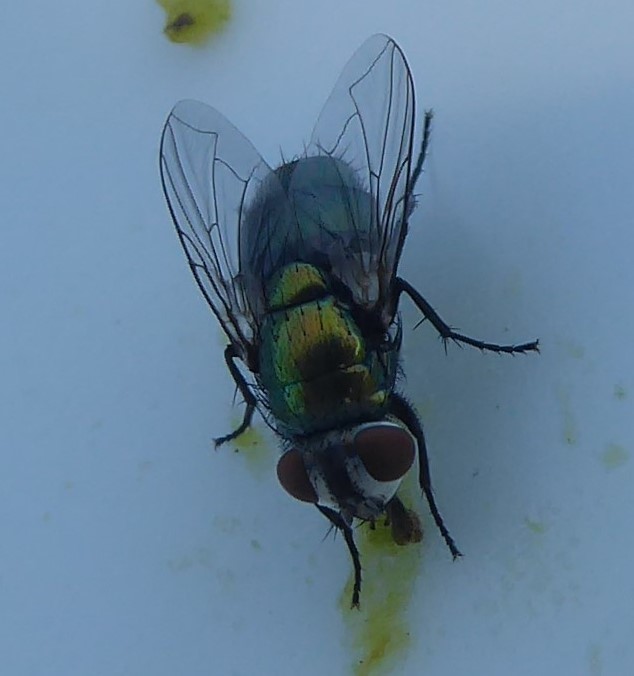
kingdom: Animalia
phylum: Arthropoda
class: Insecta
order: Diptera
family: Calliphoridae
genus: Lucilia
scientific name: Lucilia sericata
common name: Blow fly
